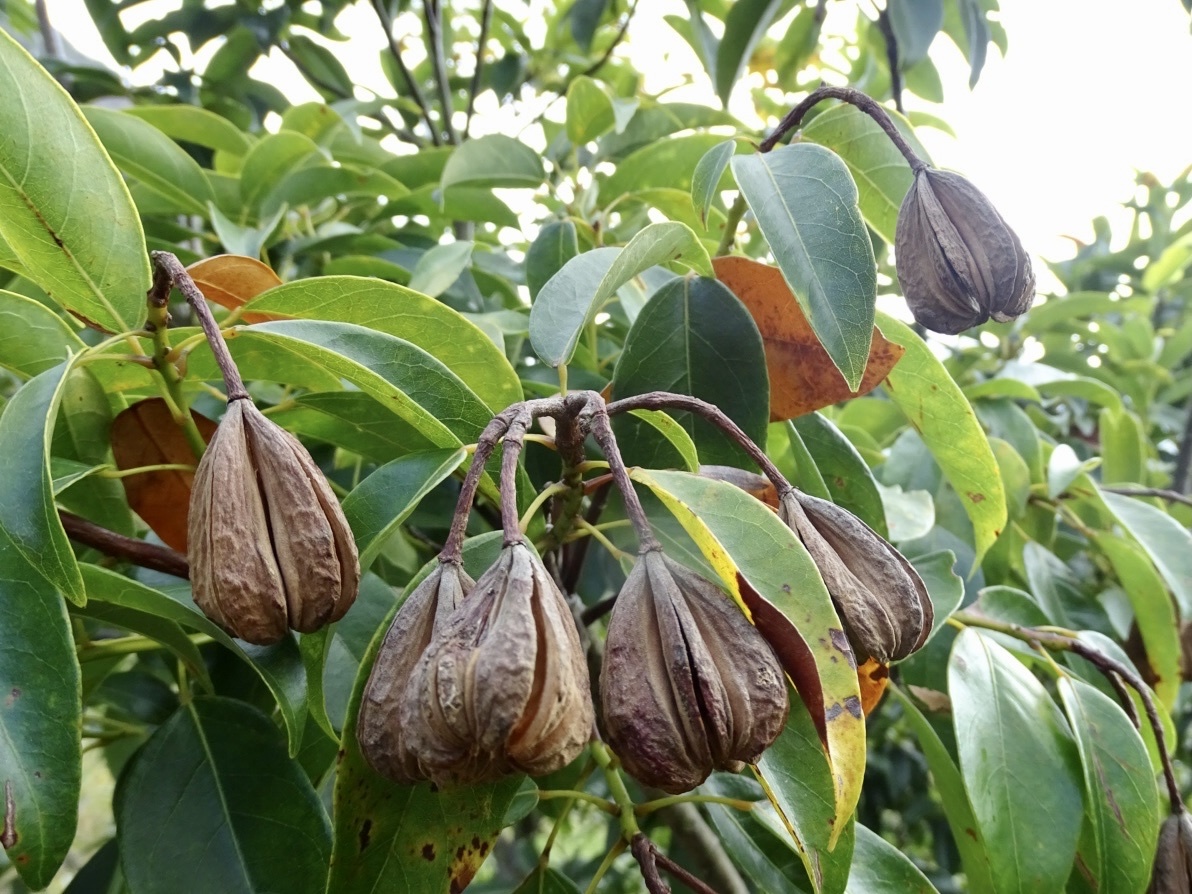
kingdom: Plantae
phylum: Tracheophyta
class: Magnoliopsida
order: Malvales
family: Malvaceae
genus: Reevesia
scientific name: Reevesia thyrsoidea
